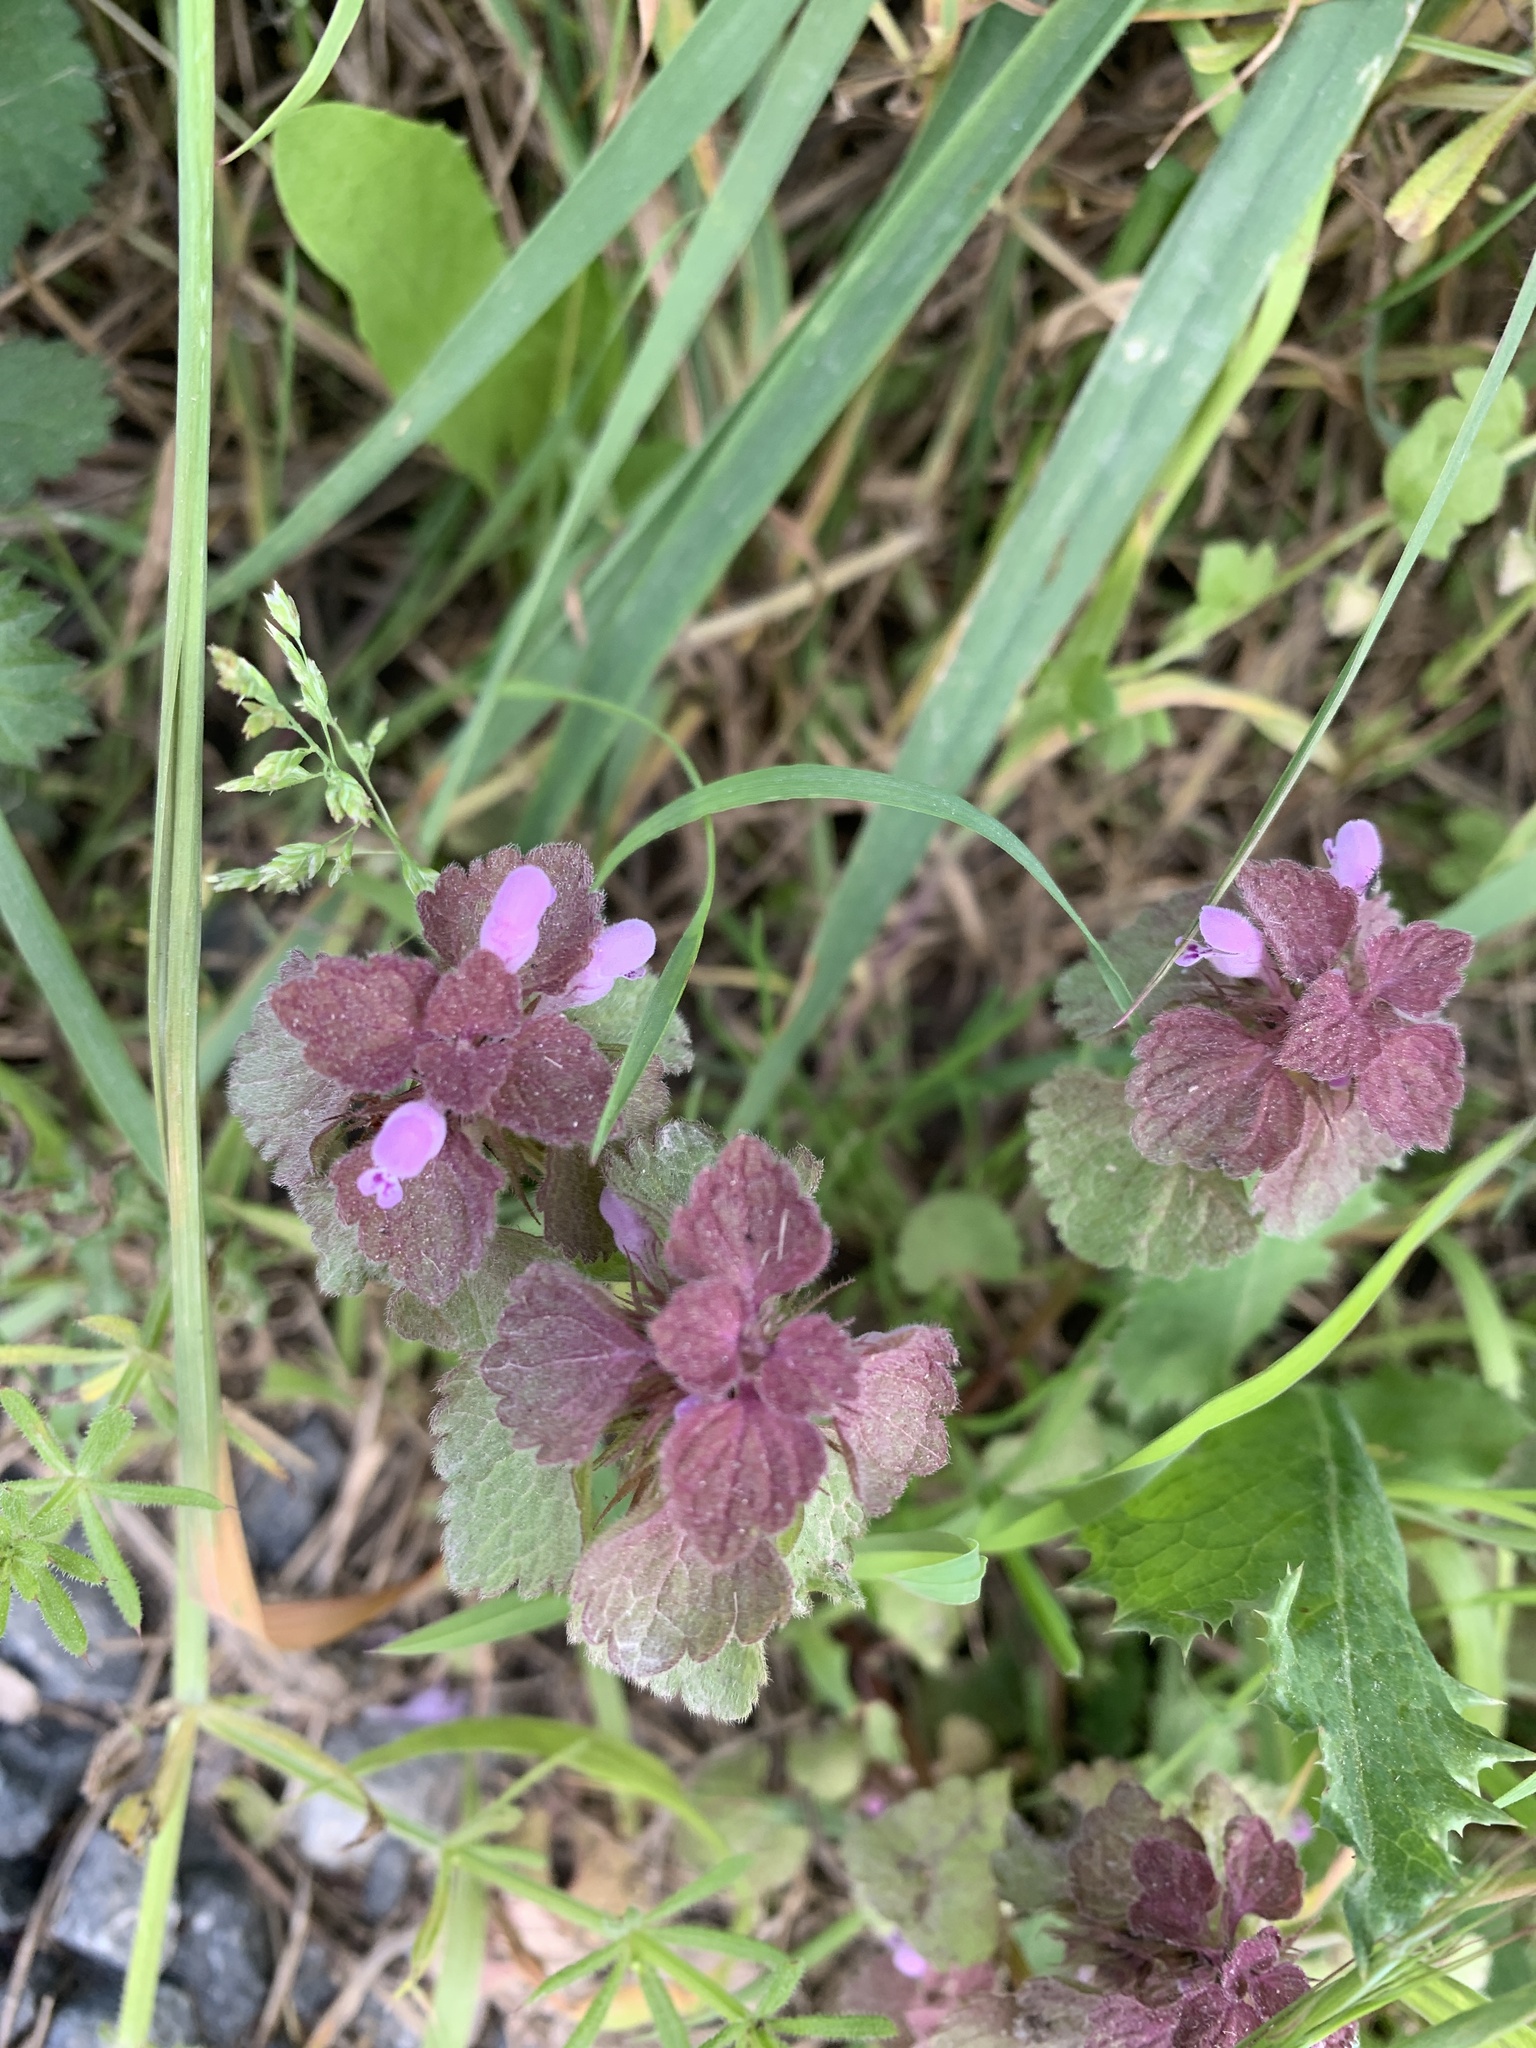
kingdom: Plantae
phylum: Tracheophyta
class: Magnoliopsida
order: Lamiales
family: Lamiaceae
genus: Lamium
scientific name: Lamium purpureum
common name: Red dead-nettle
